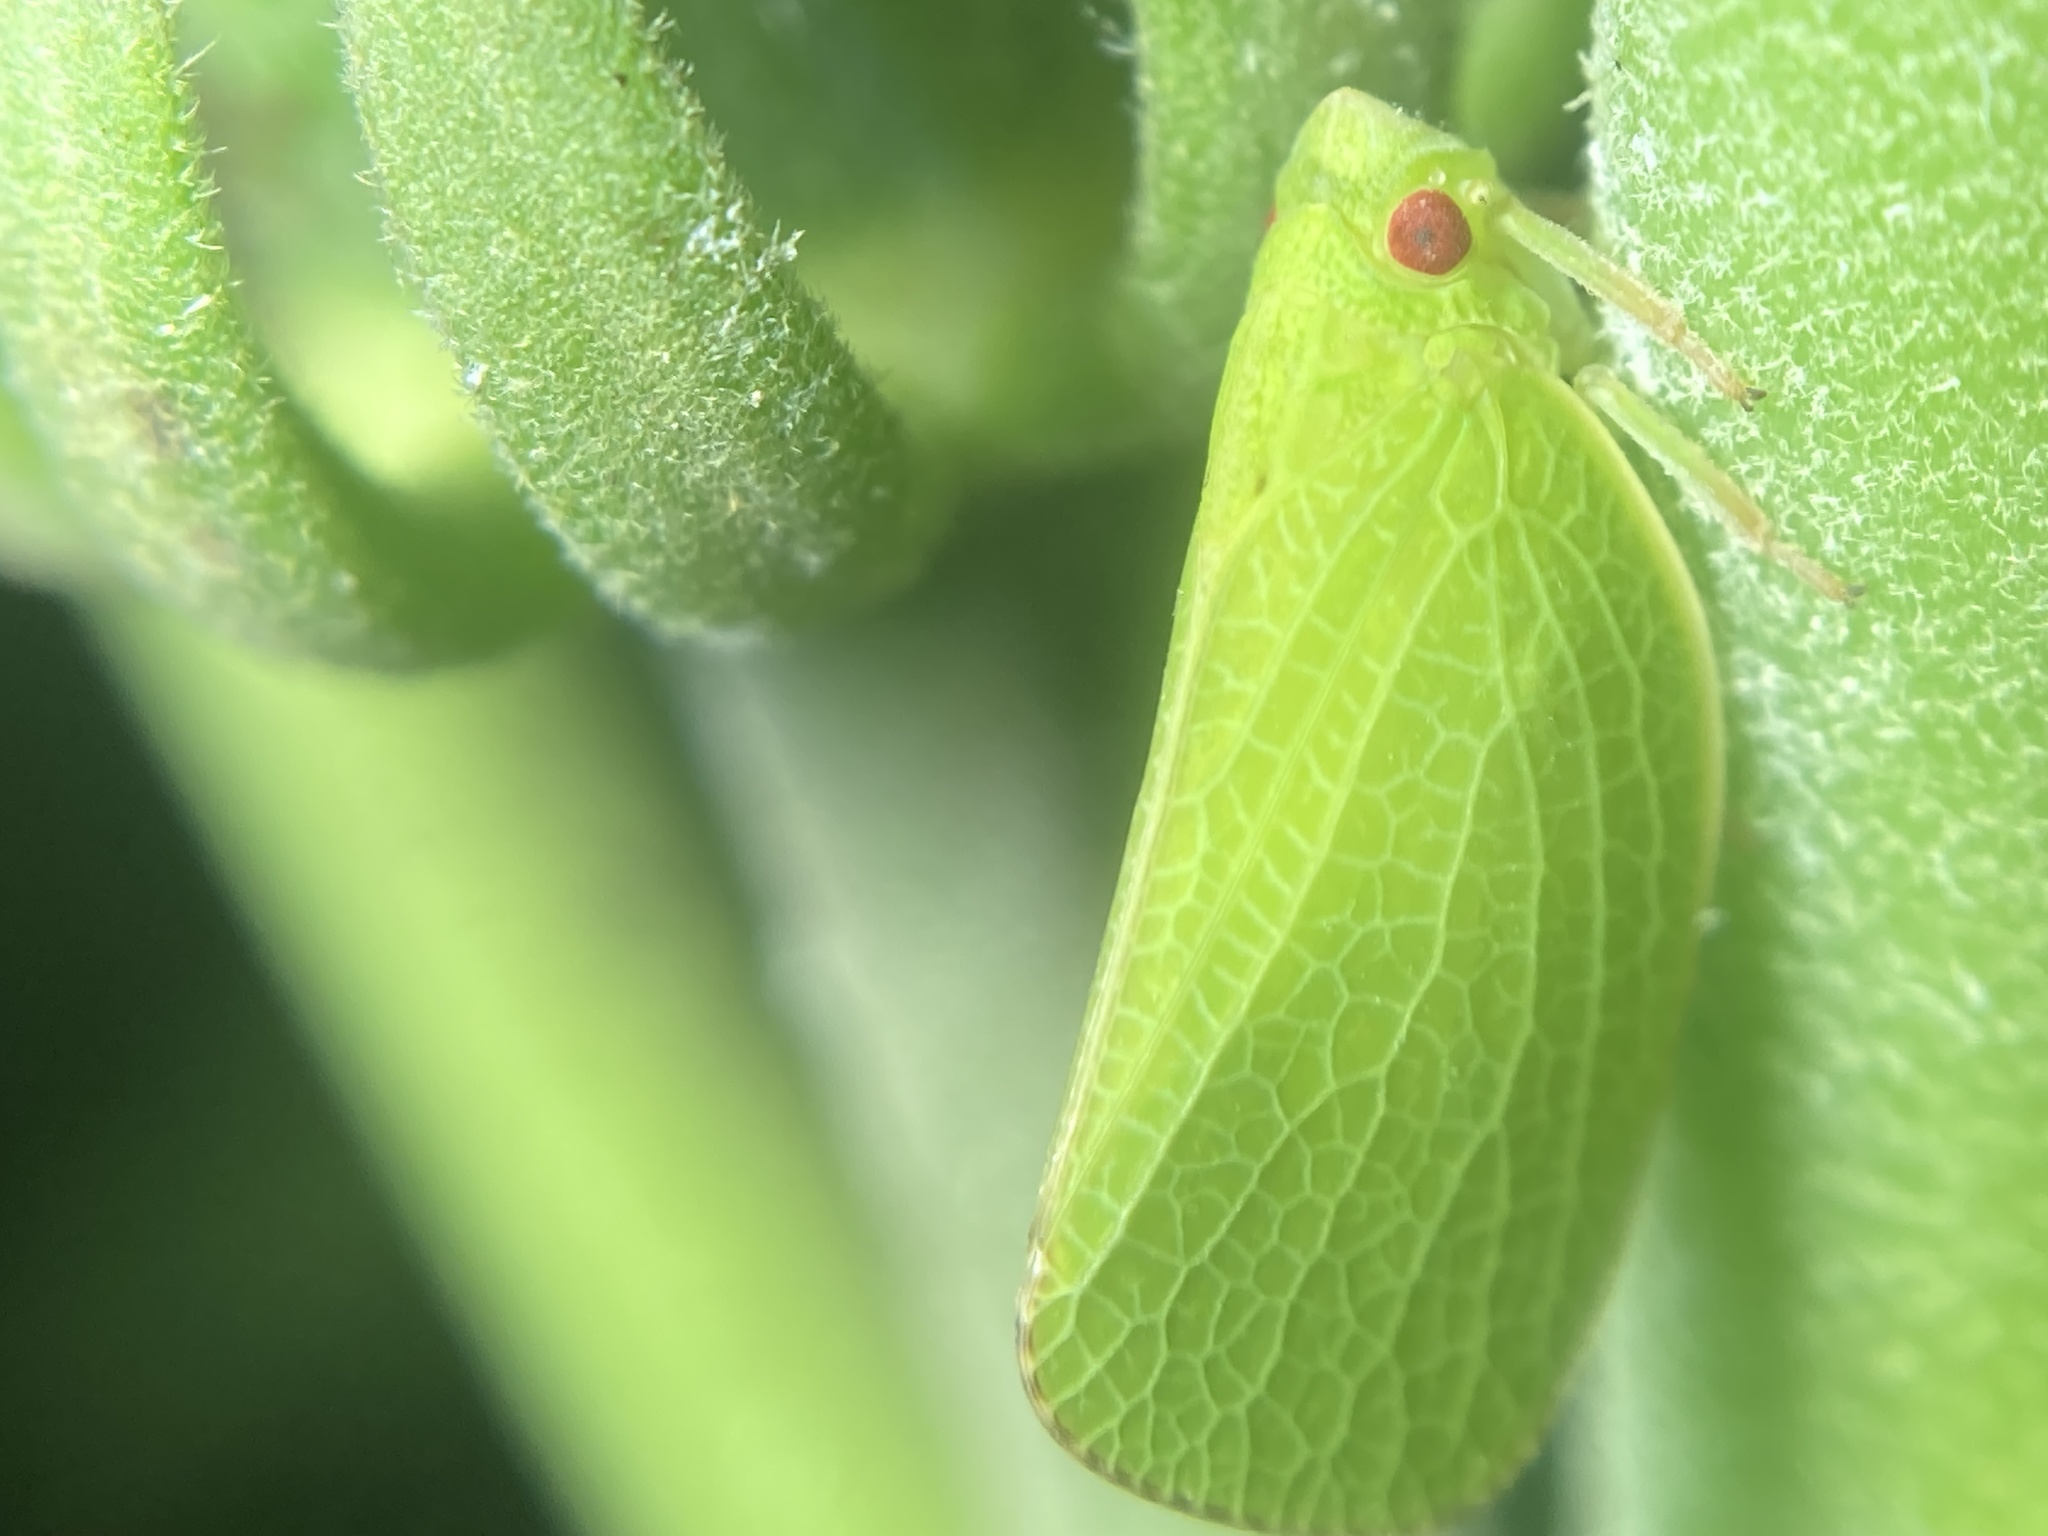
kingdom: Animalia
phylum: Arthropoda
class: Insecta
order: Hemiptera
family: Acanaloniidae
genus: Acanalonia
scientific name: Acanalonia conica
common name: Green cone-headed planthopper
